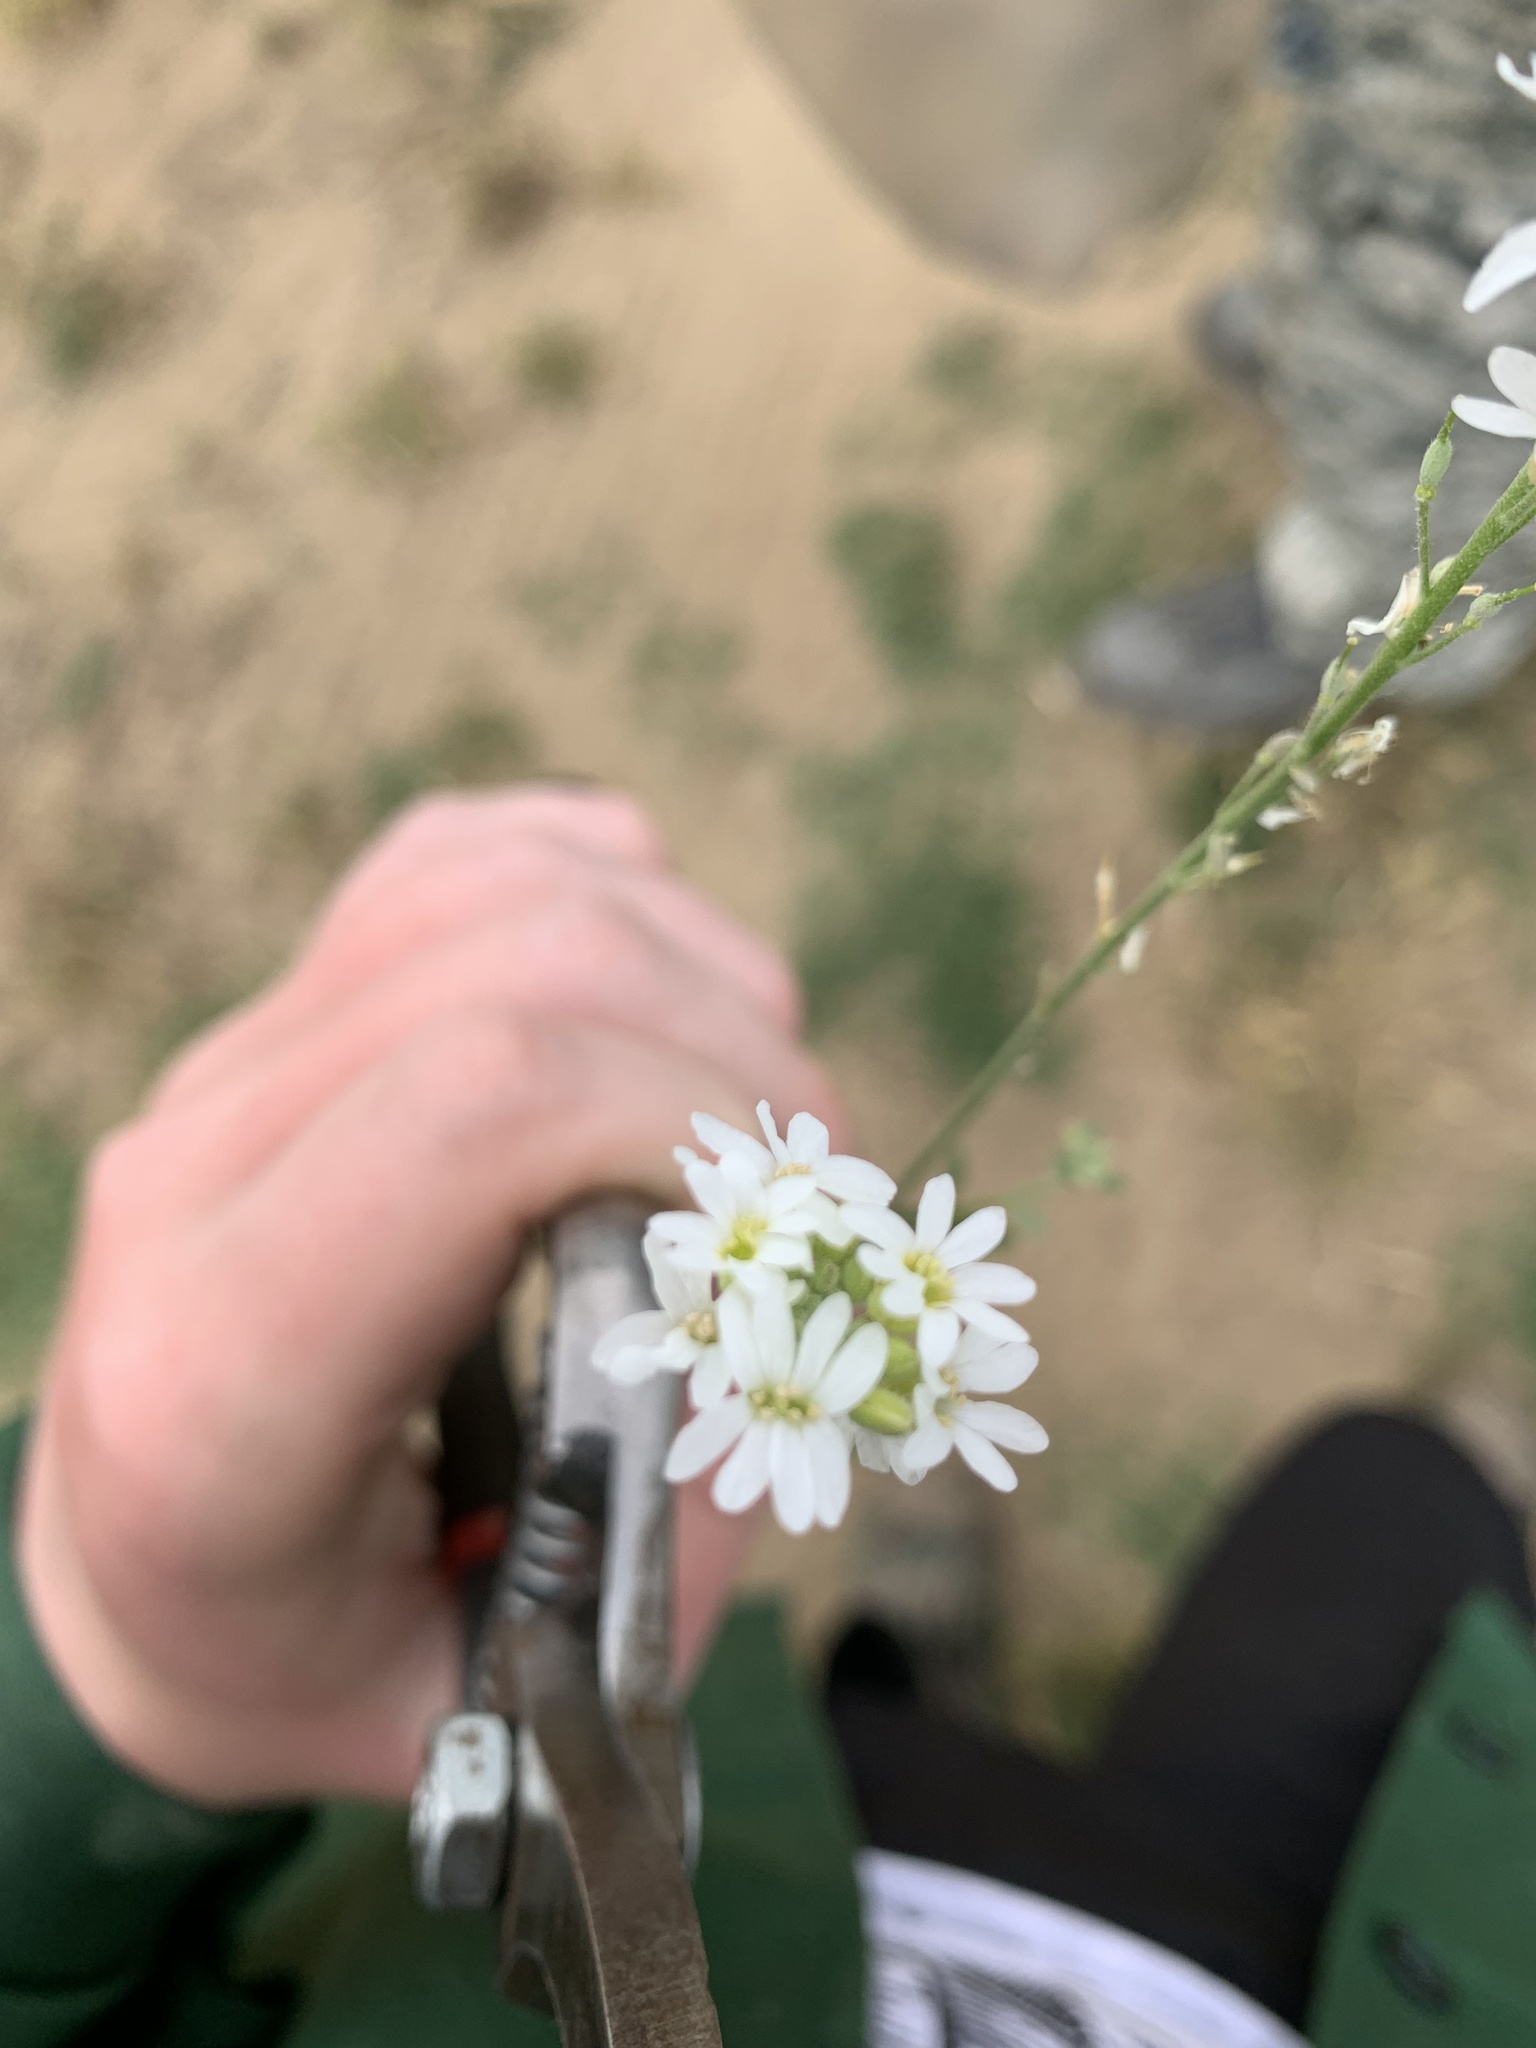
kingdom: Plantae
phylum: Tracheophyta
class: Magnoliopsida
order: Brassicales
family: Brassicaceae
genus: Berteroa
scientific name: Berteroa incana
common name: Hoary alison
